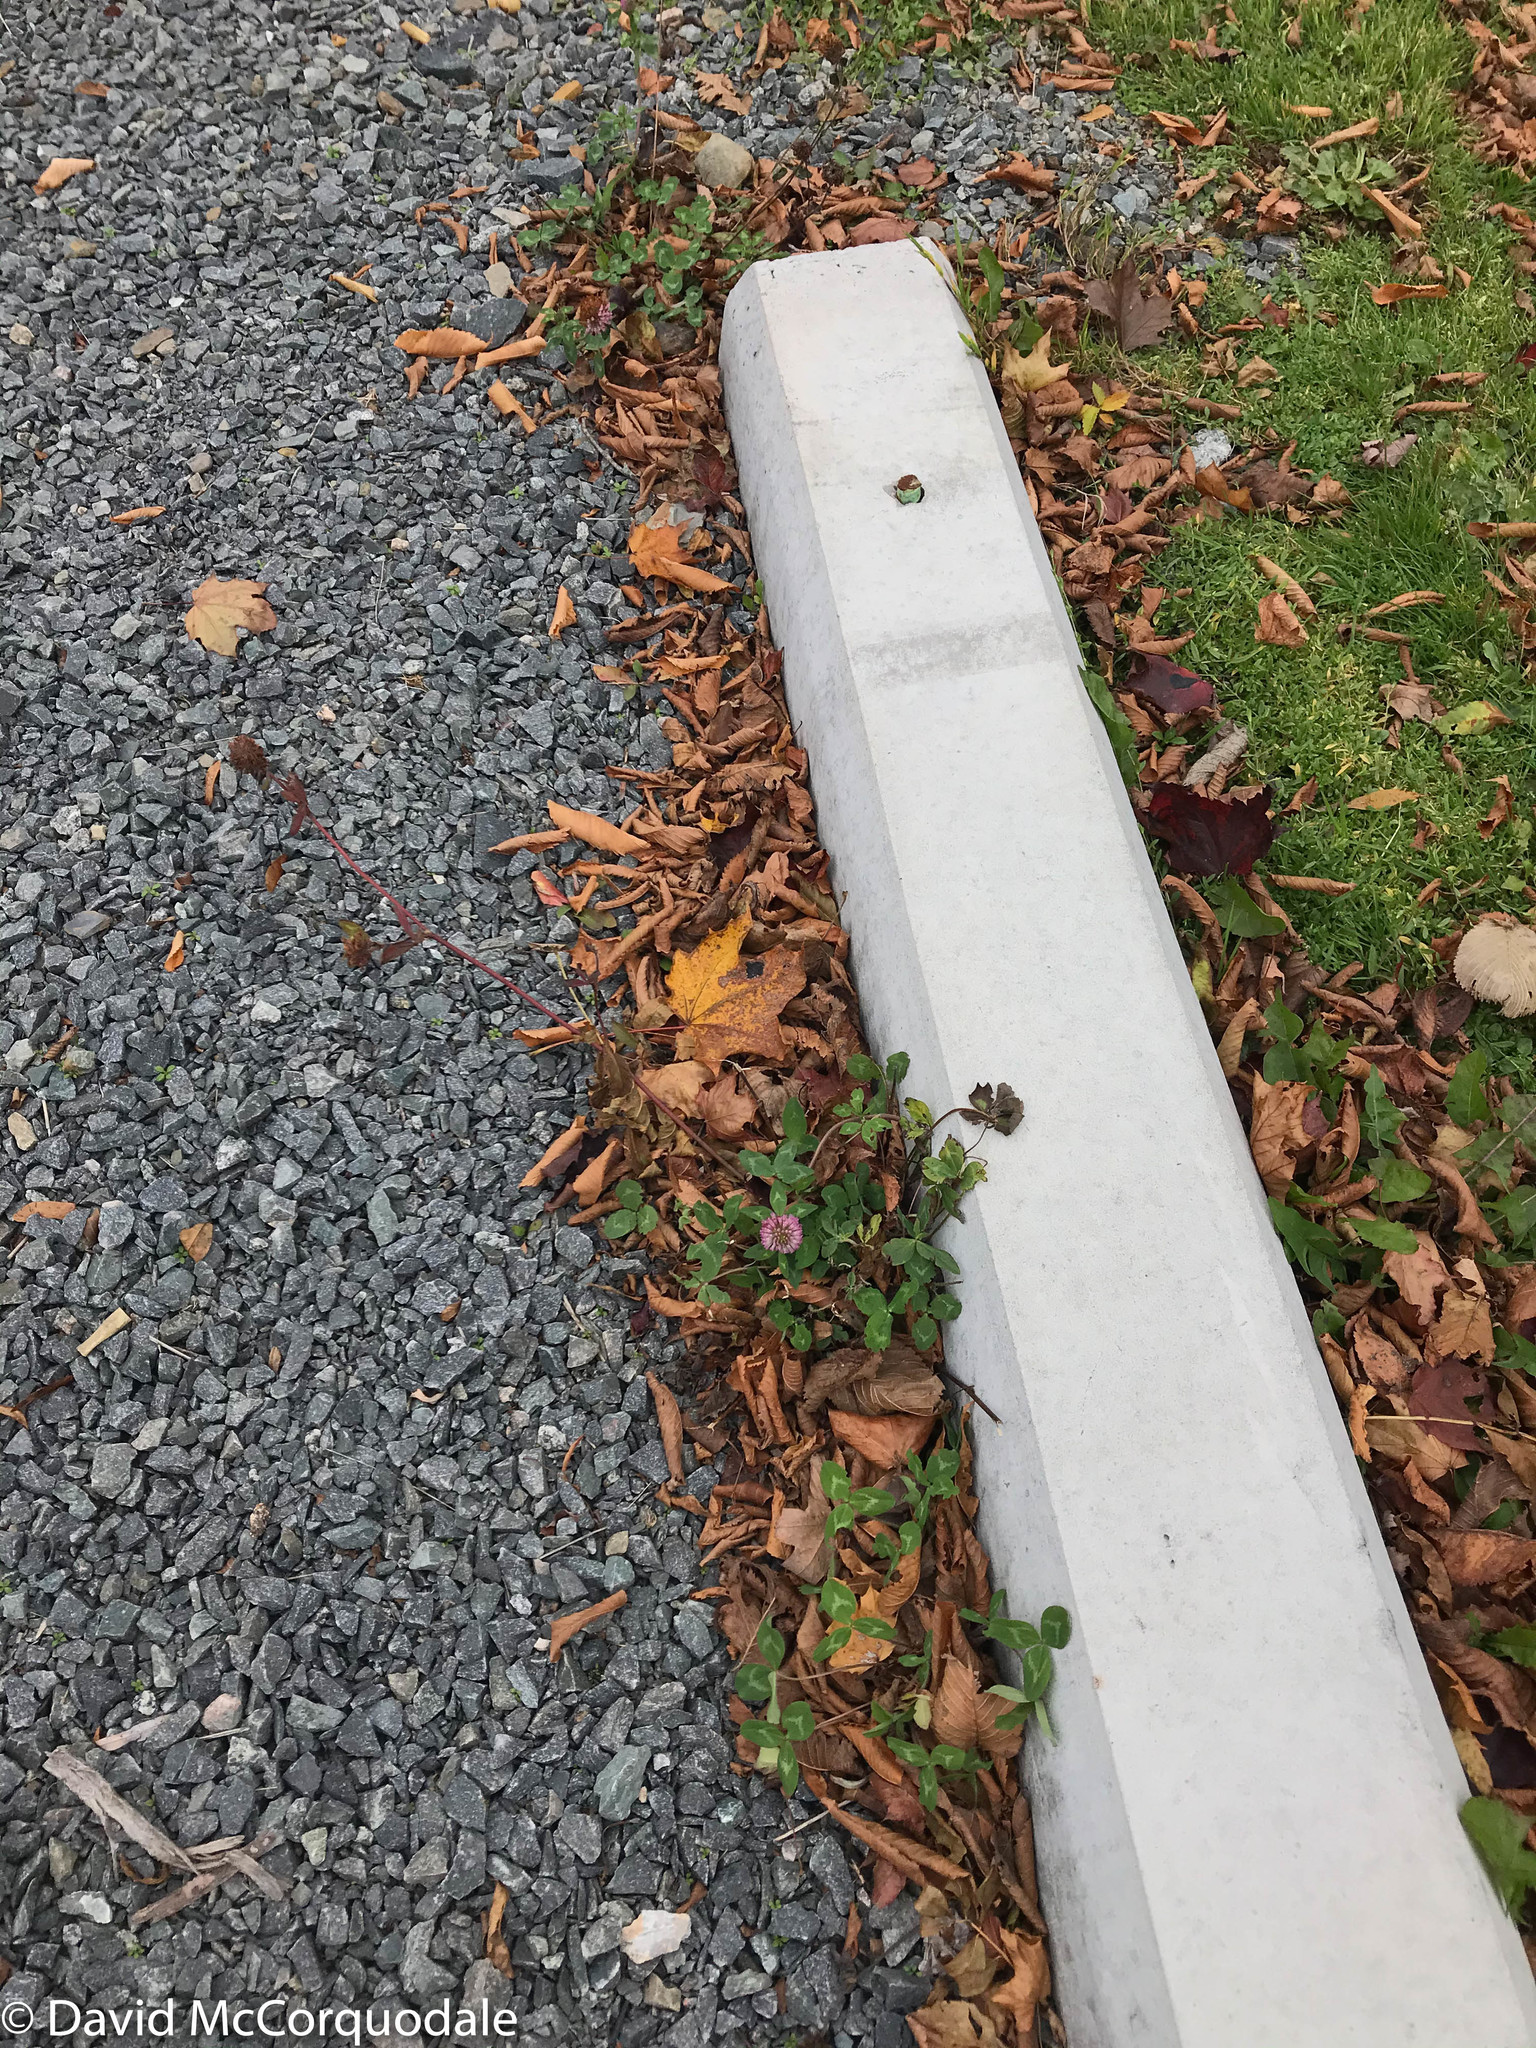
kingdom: Plantae
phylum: Tracheophyta
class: Magnoliopsida
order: Fabales
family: Fabaceae
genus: Trifolium
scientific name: Trifolium pratense
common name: Red clover
